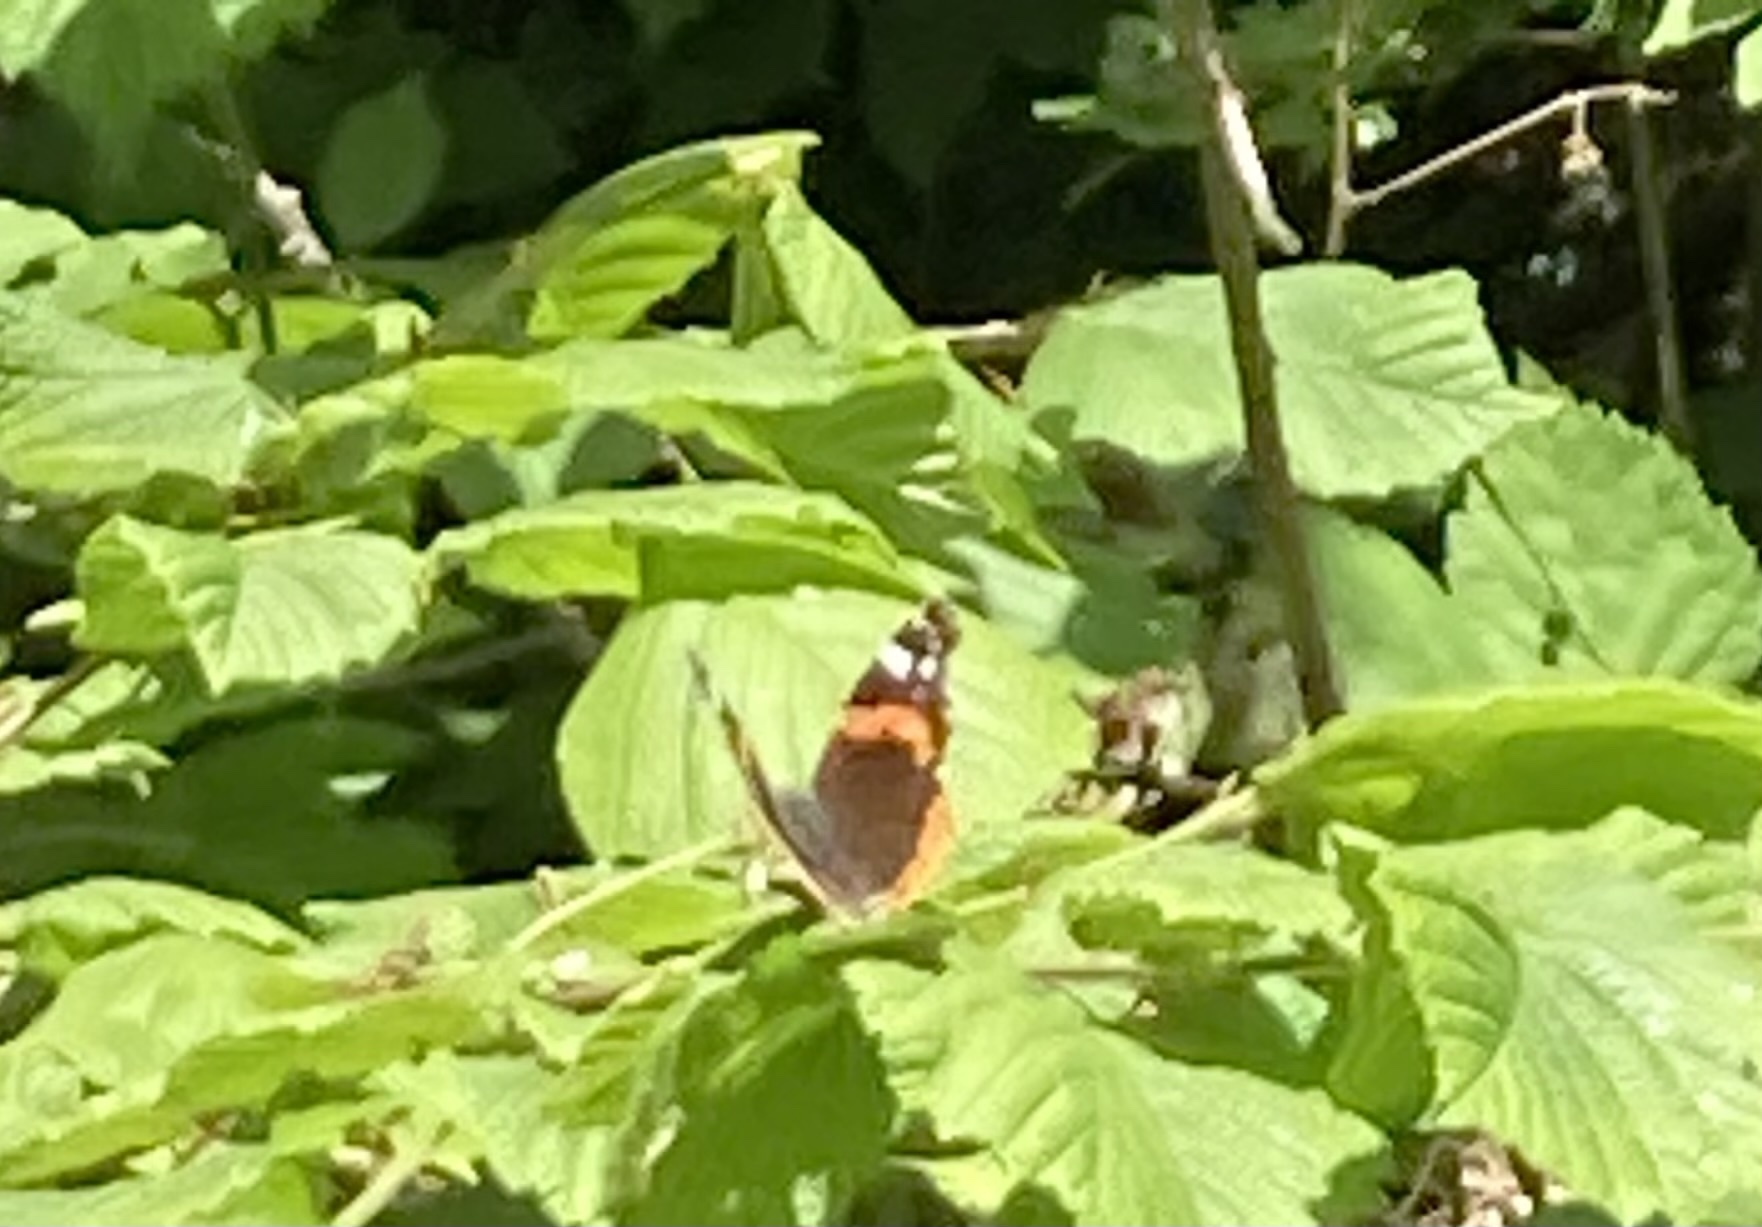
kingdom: Animalia
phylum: Arthropoda
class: Insecta
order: Lepidoptera
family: Nymphalidae
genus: Vanessa
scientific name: Vanessa atalanta
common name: Red admiral
